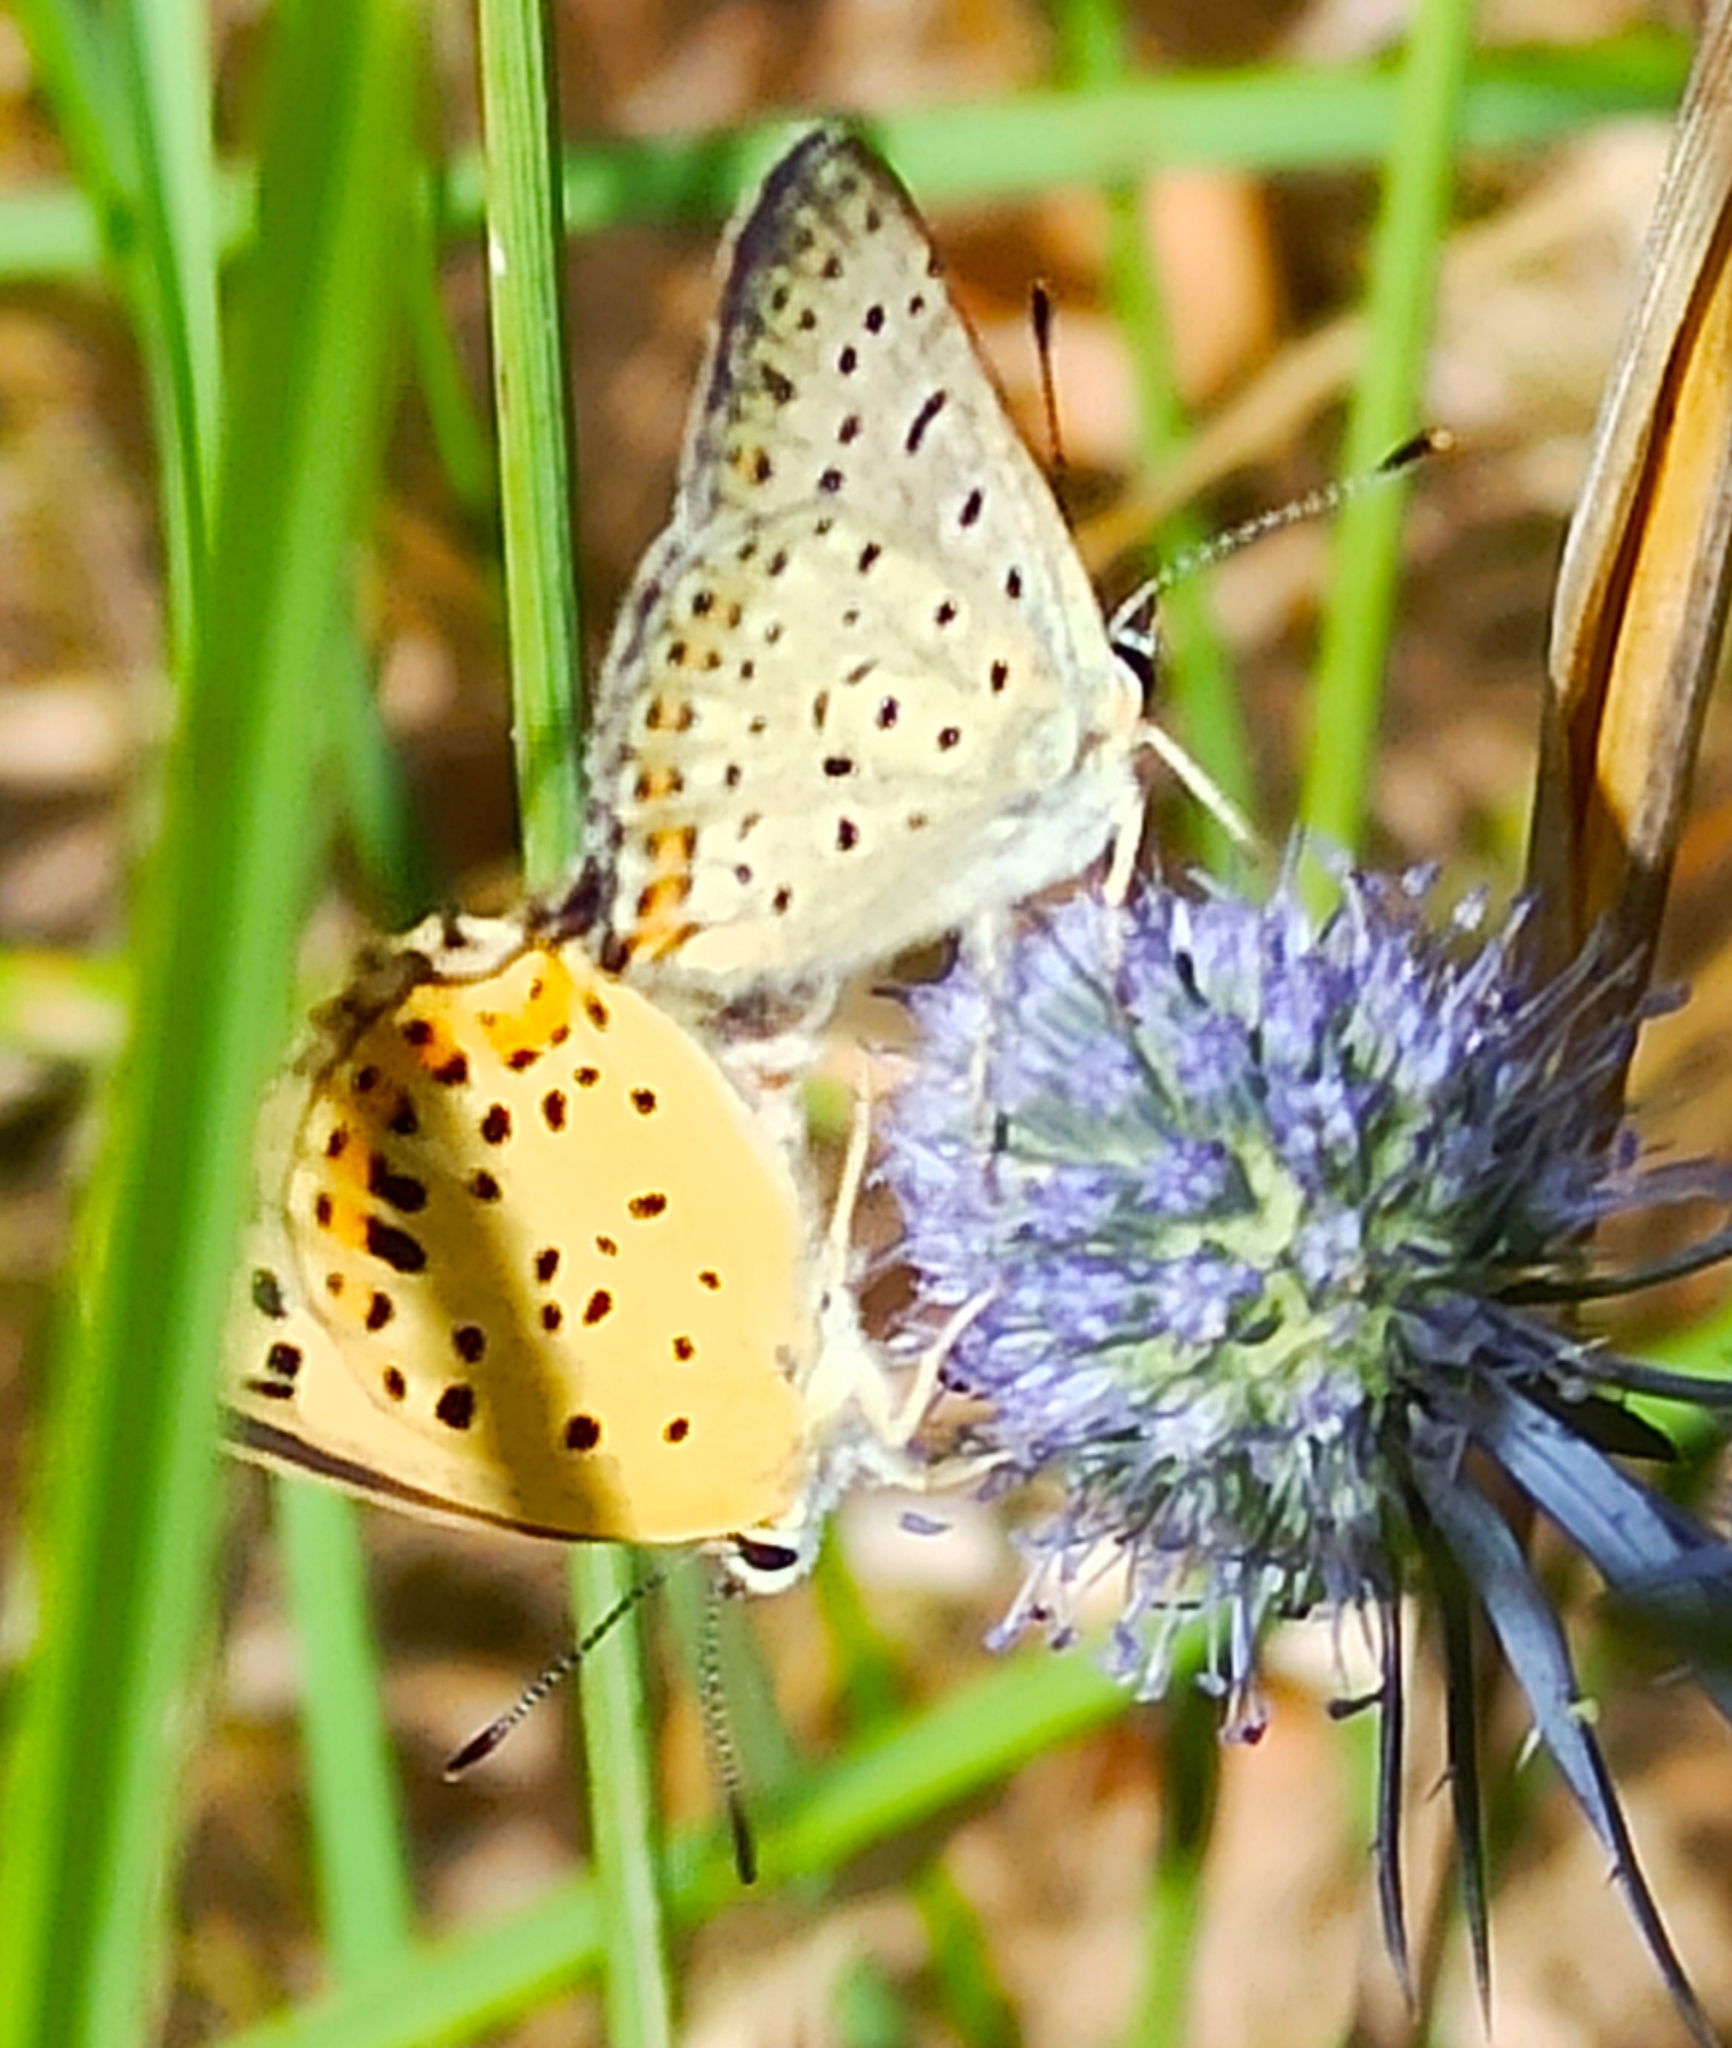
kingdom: Animalia
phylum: Arthropoda
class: Insecta
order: Lepidoptera
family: Lycaenidae
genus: Loweia
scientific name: Loweia tityrus
